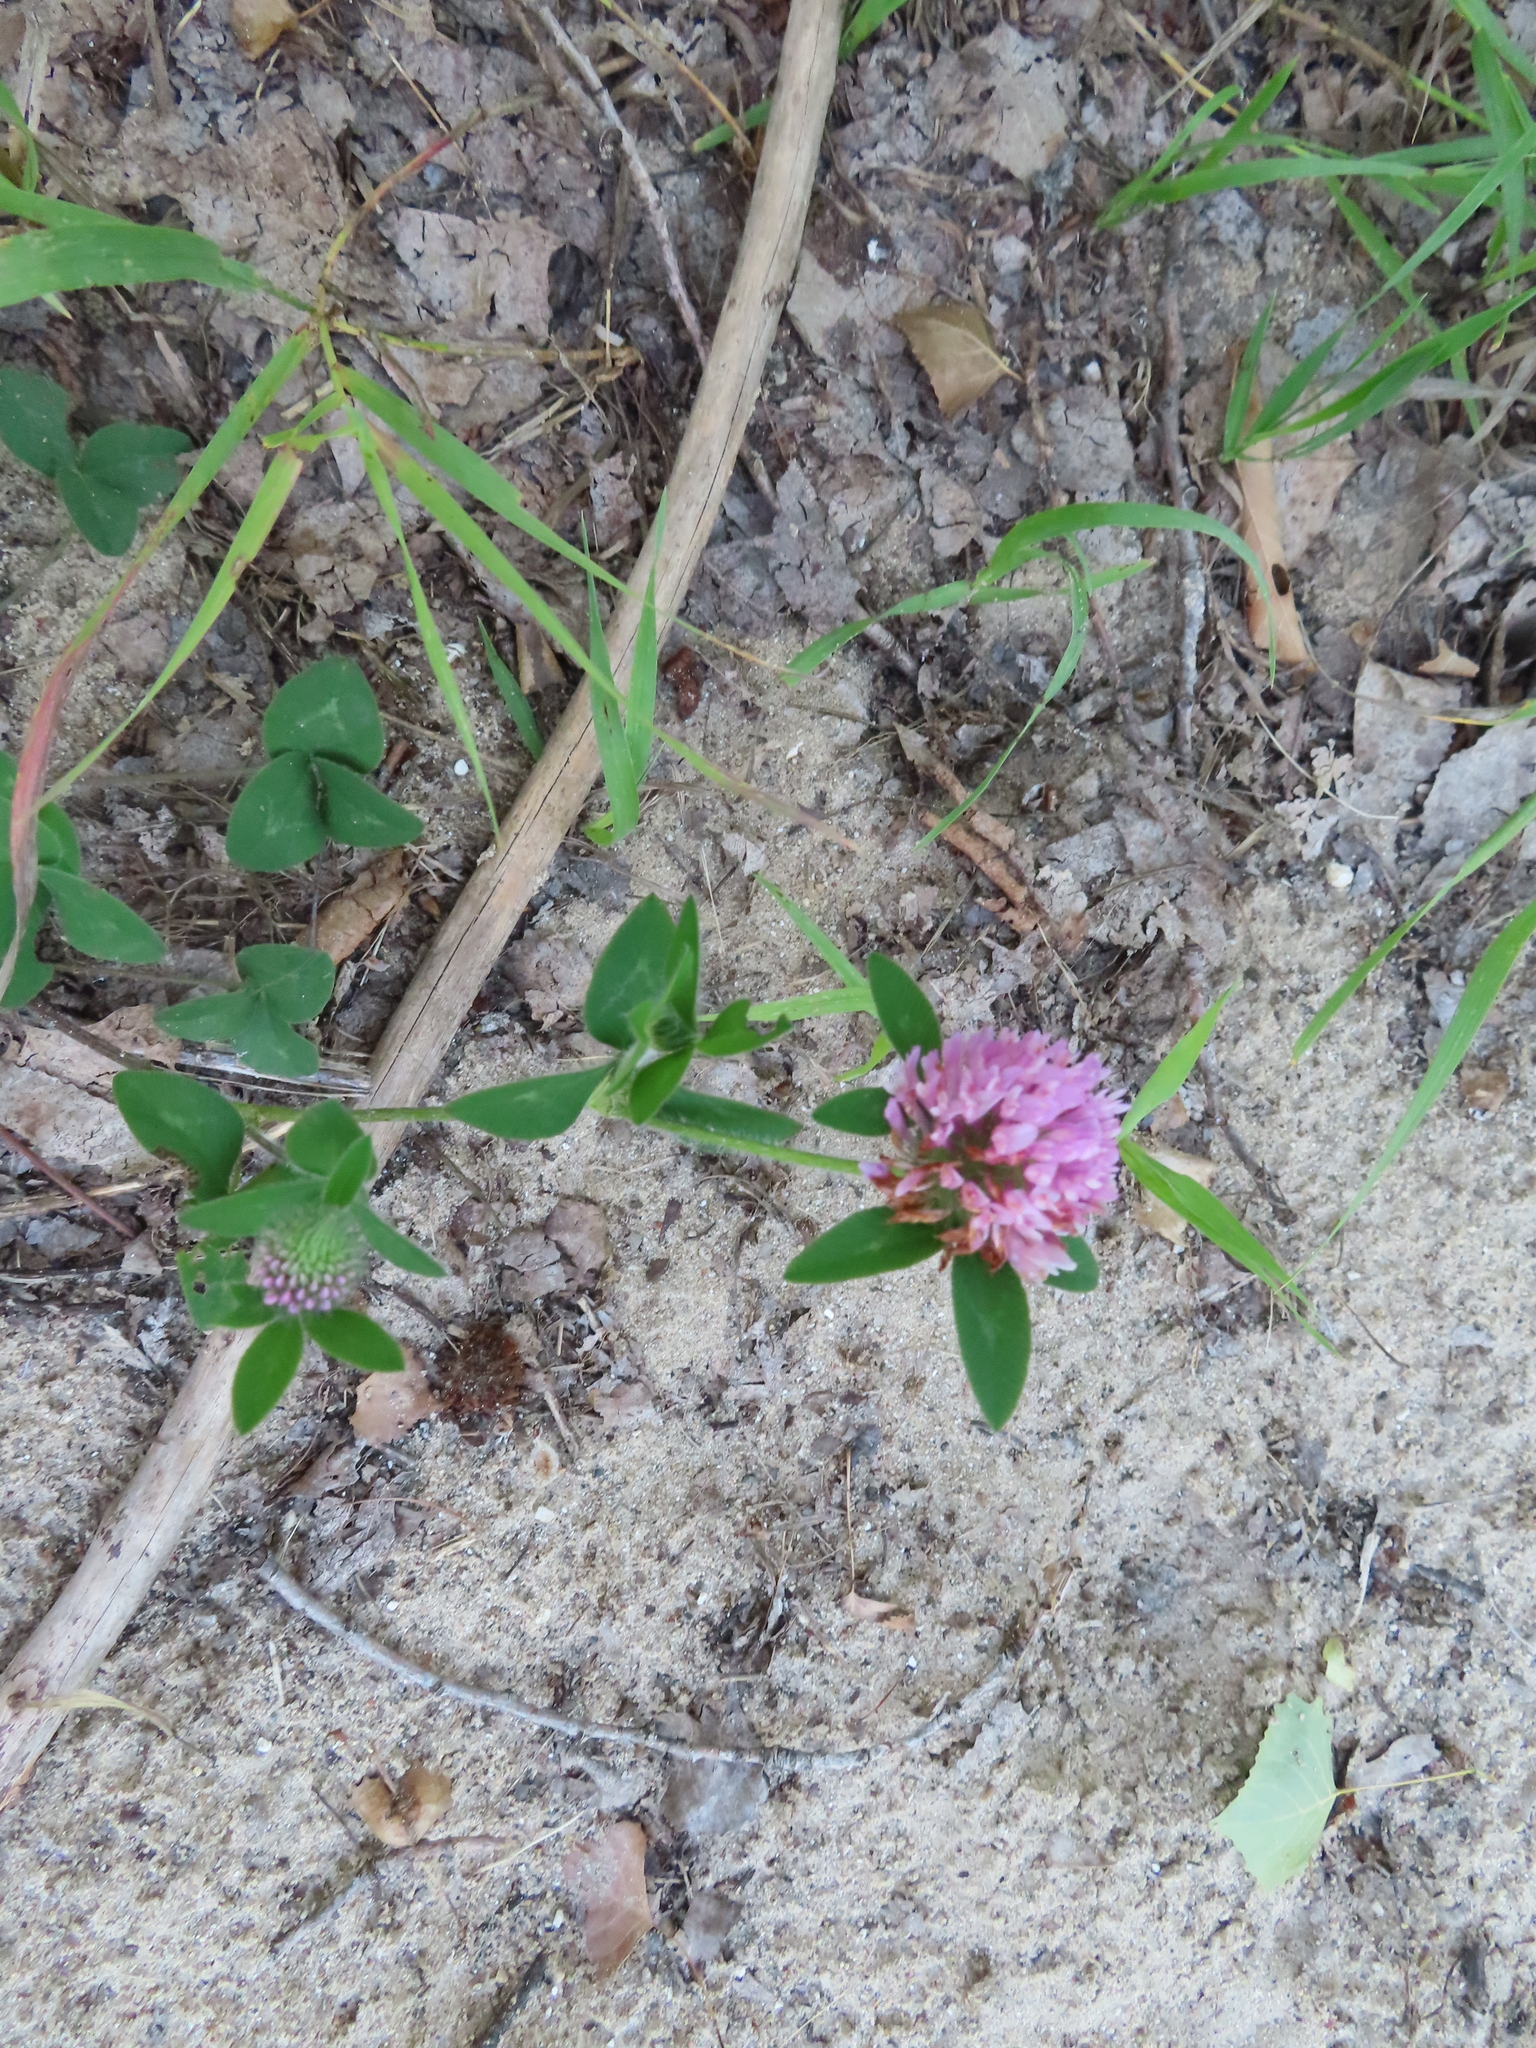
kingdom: Plantae
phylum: Tracheophyta
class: Magnoliopsida
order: Fabales
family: Fabaceae
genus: Trifolium
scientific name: Trifolium pratense
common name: Red clover
